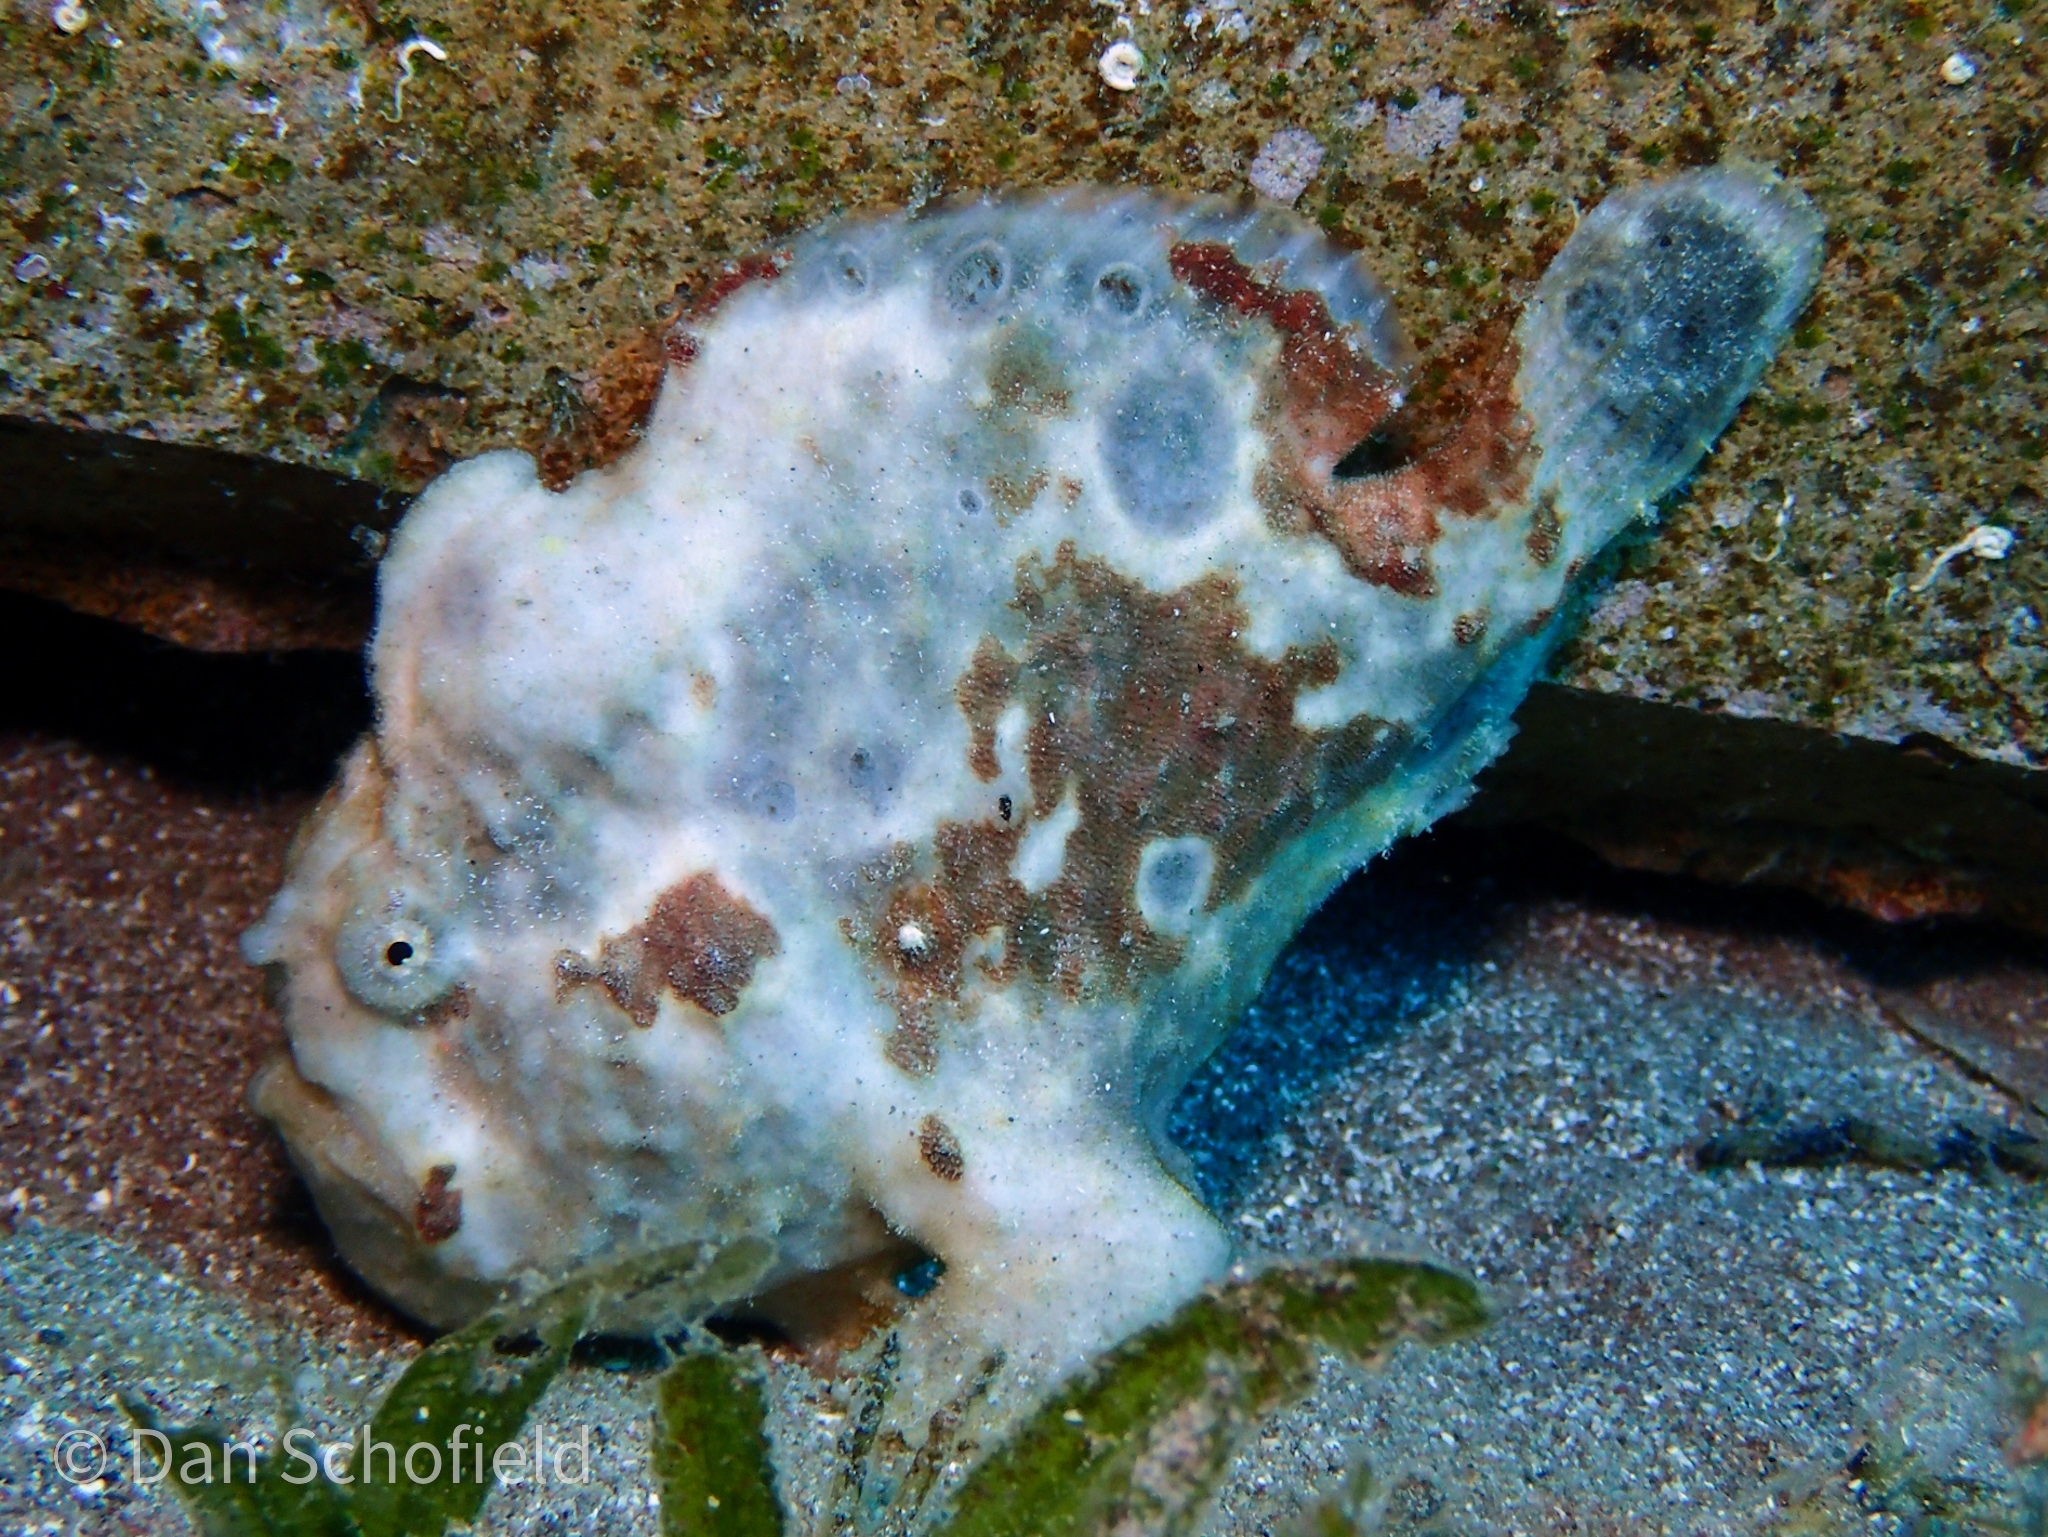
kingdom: Animalia
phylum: Chordata
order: Lophiiformes
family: Antennariidae
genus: Antennarius
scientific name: Antennarius multiocellatus
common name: Longlure frogfish
